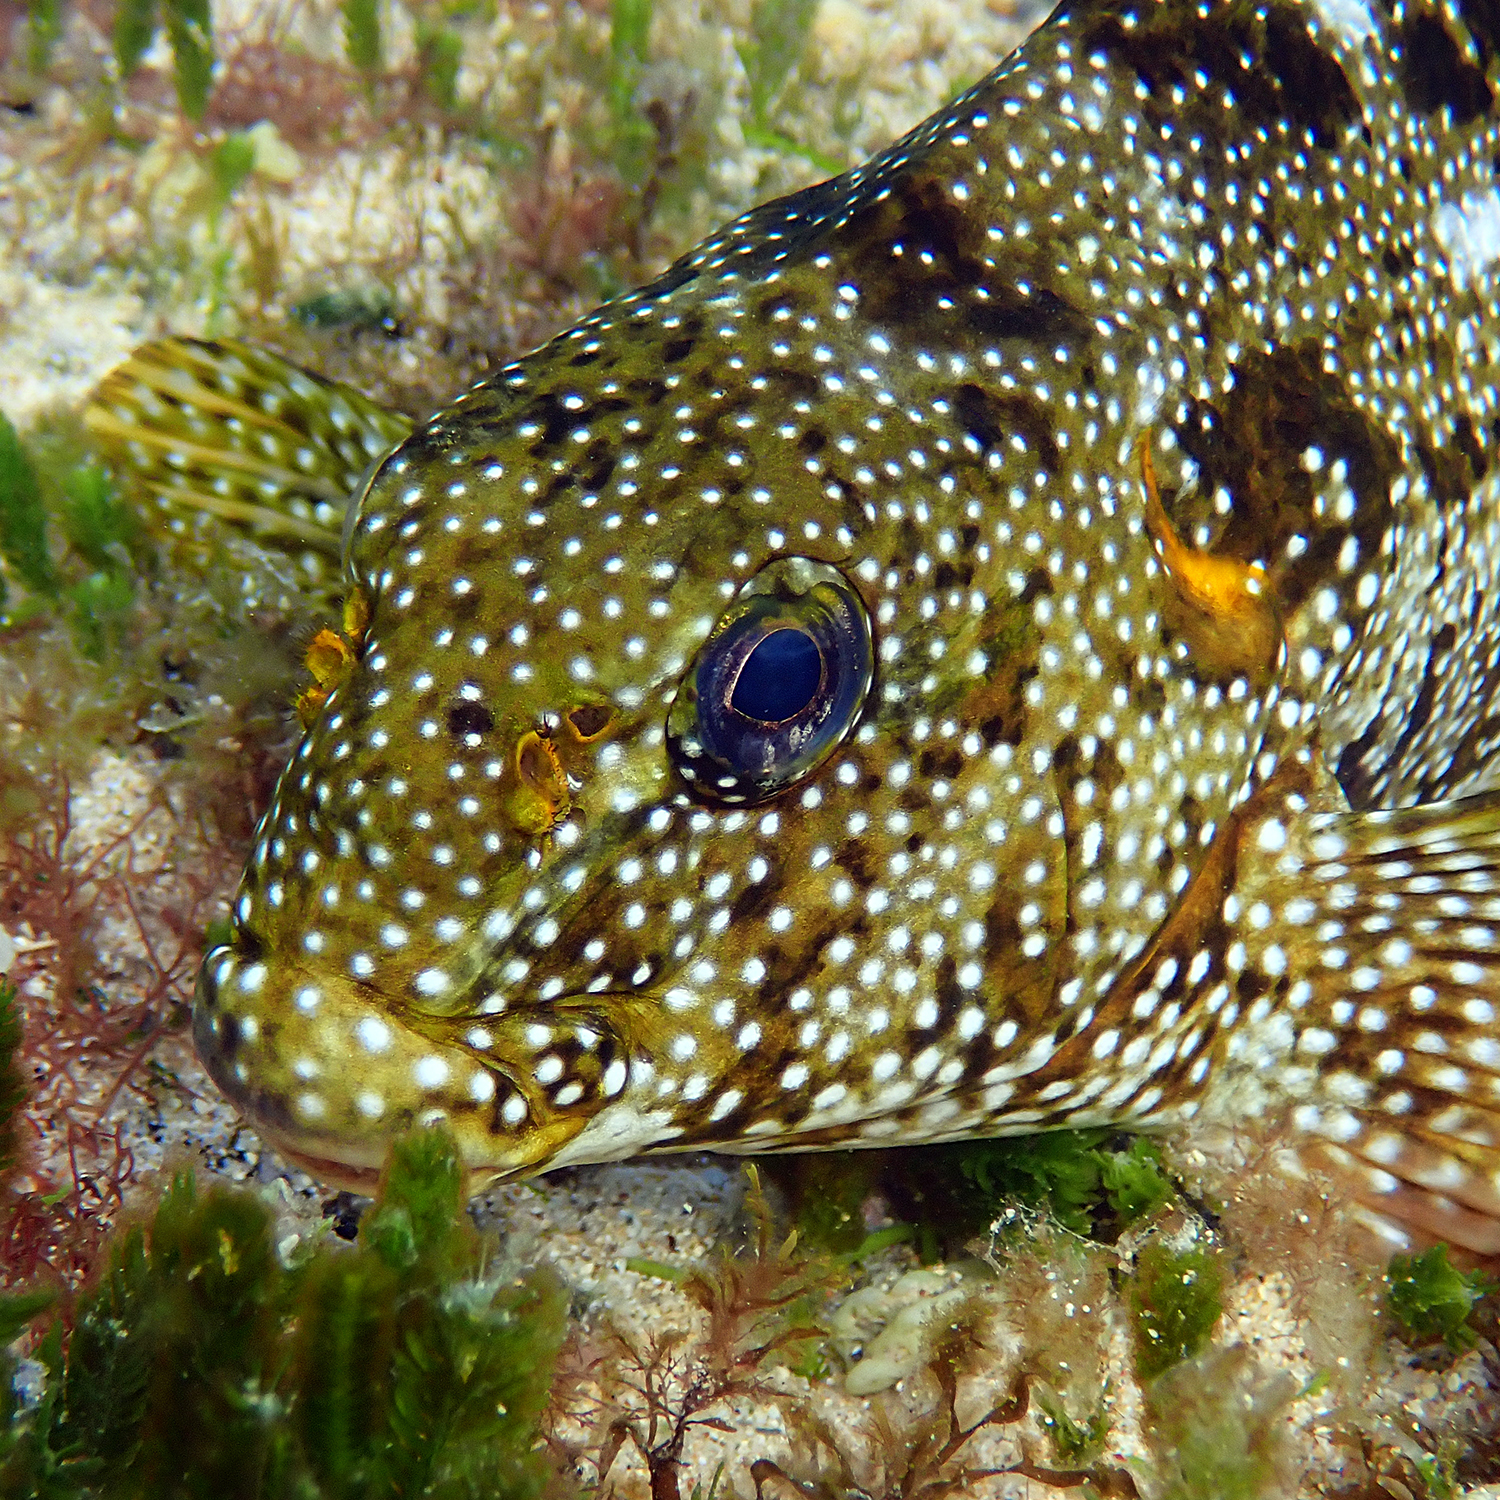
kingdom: Animalia
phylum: Chordata
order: Perciformes
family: Aplodactylidae
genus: Aplodactylus
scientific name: Aplodactylus etheridgii
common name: Notchheaded marblefish
